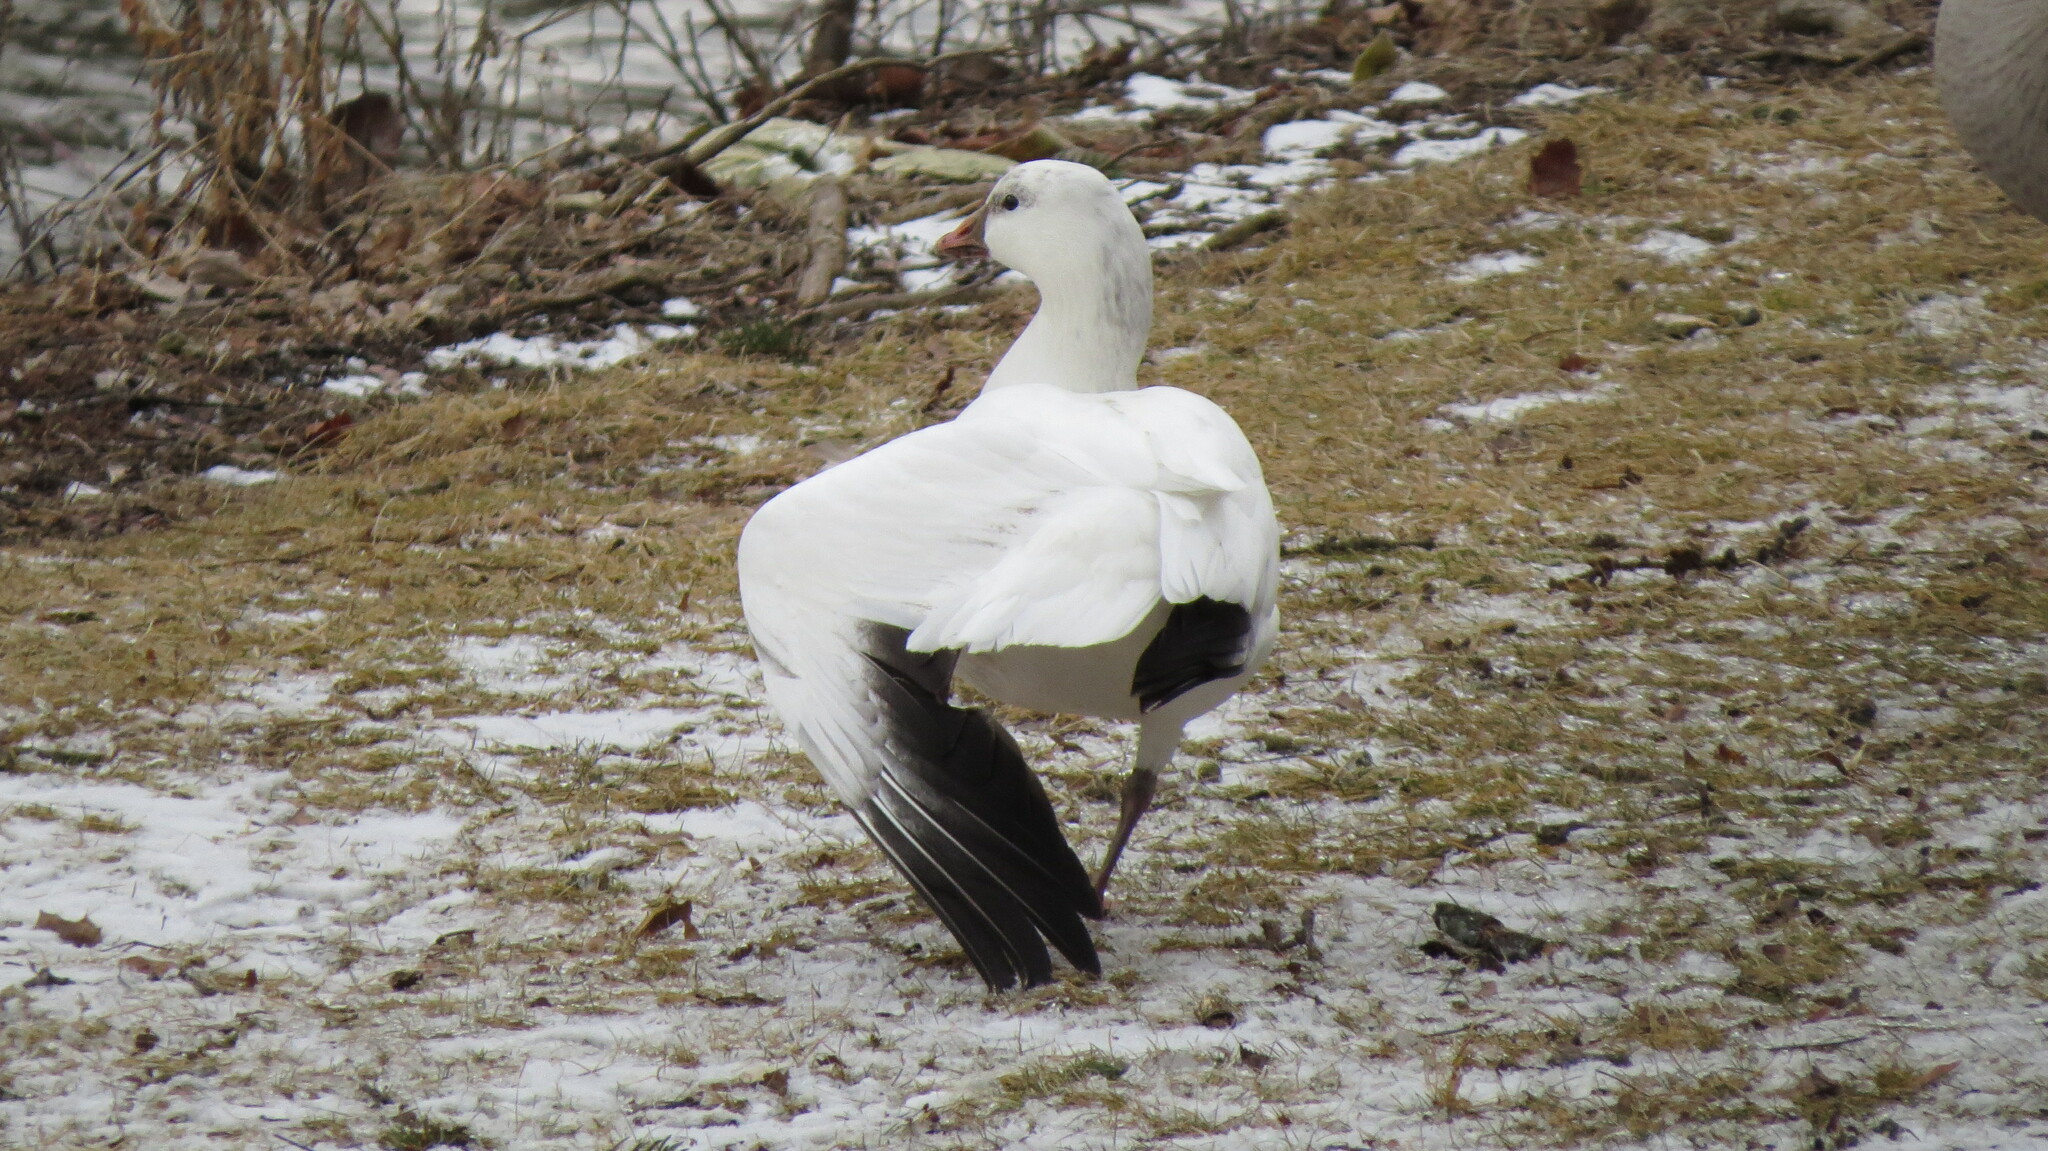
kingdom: Animalia
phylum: Chordata
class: Aves
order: Anseriformes
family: Anatidae
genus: Anser
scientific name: Anser rossii
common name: Ross's goose
